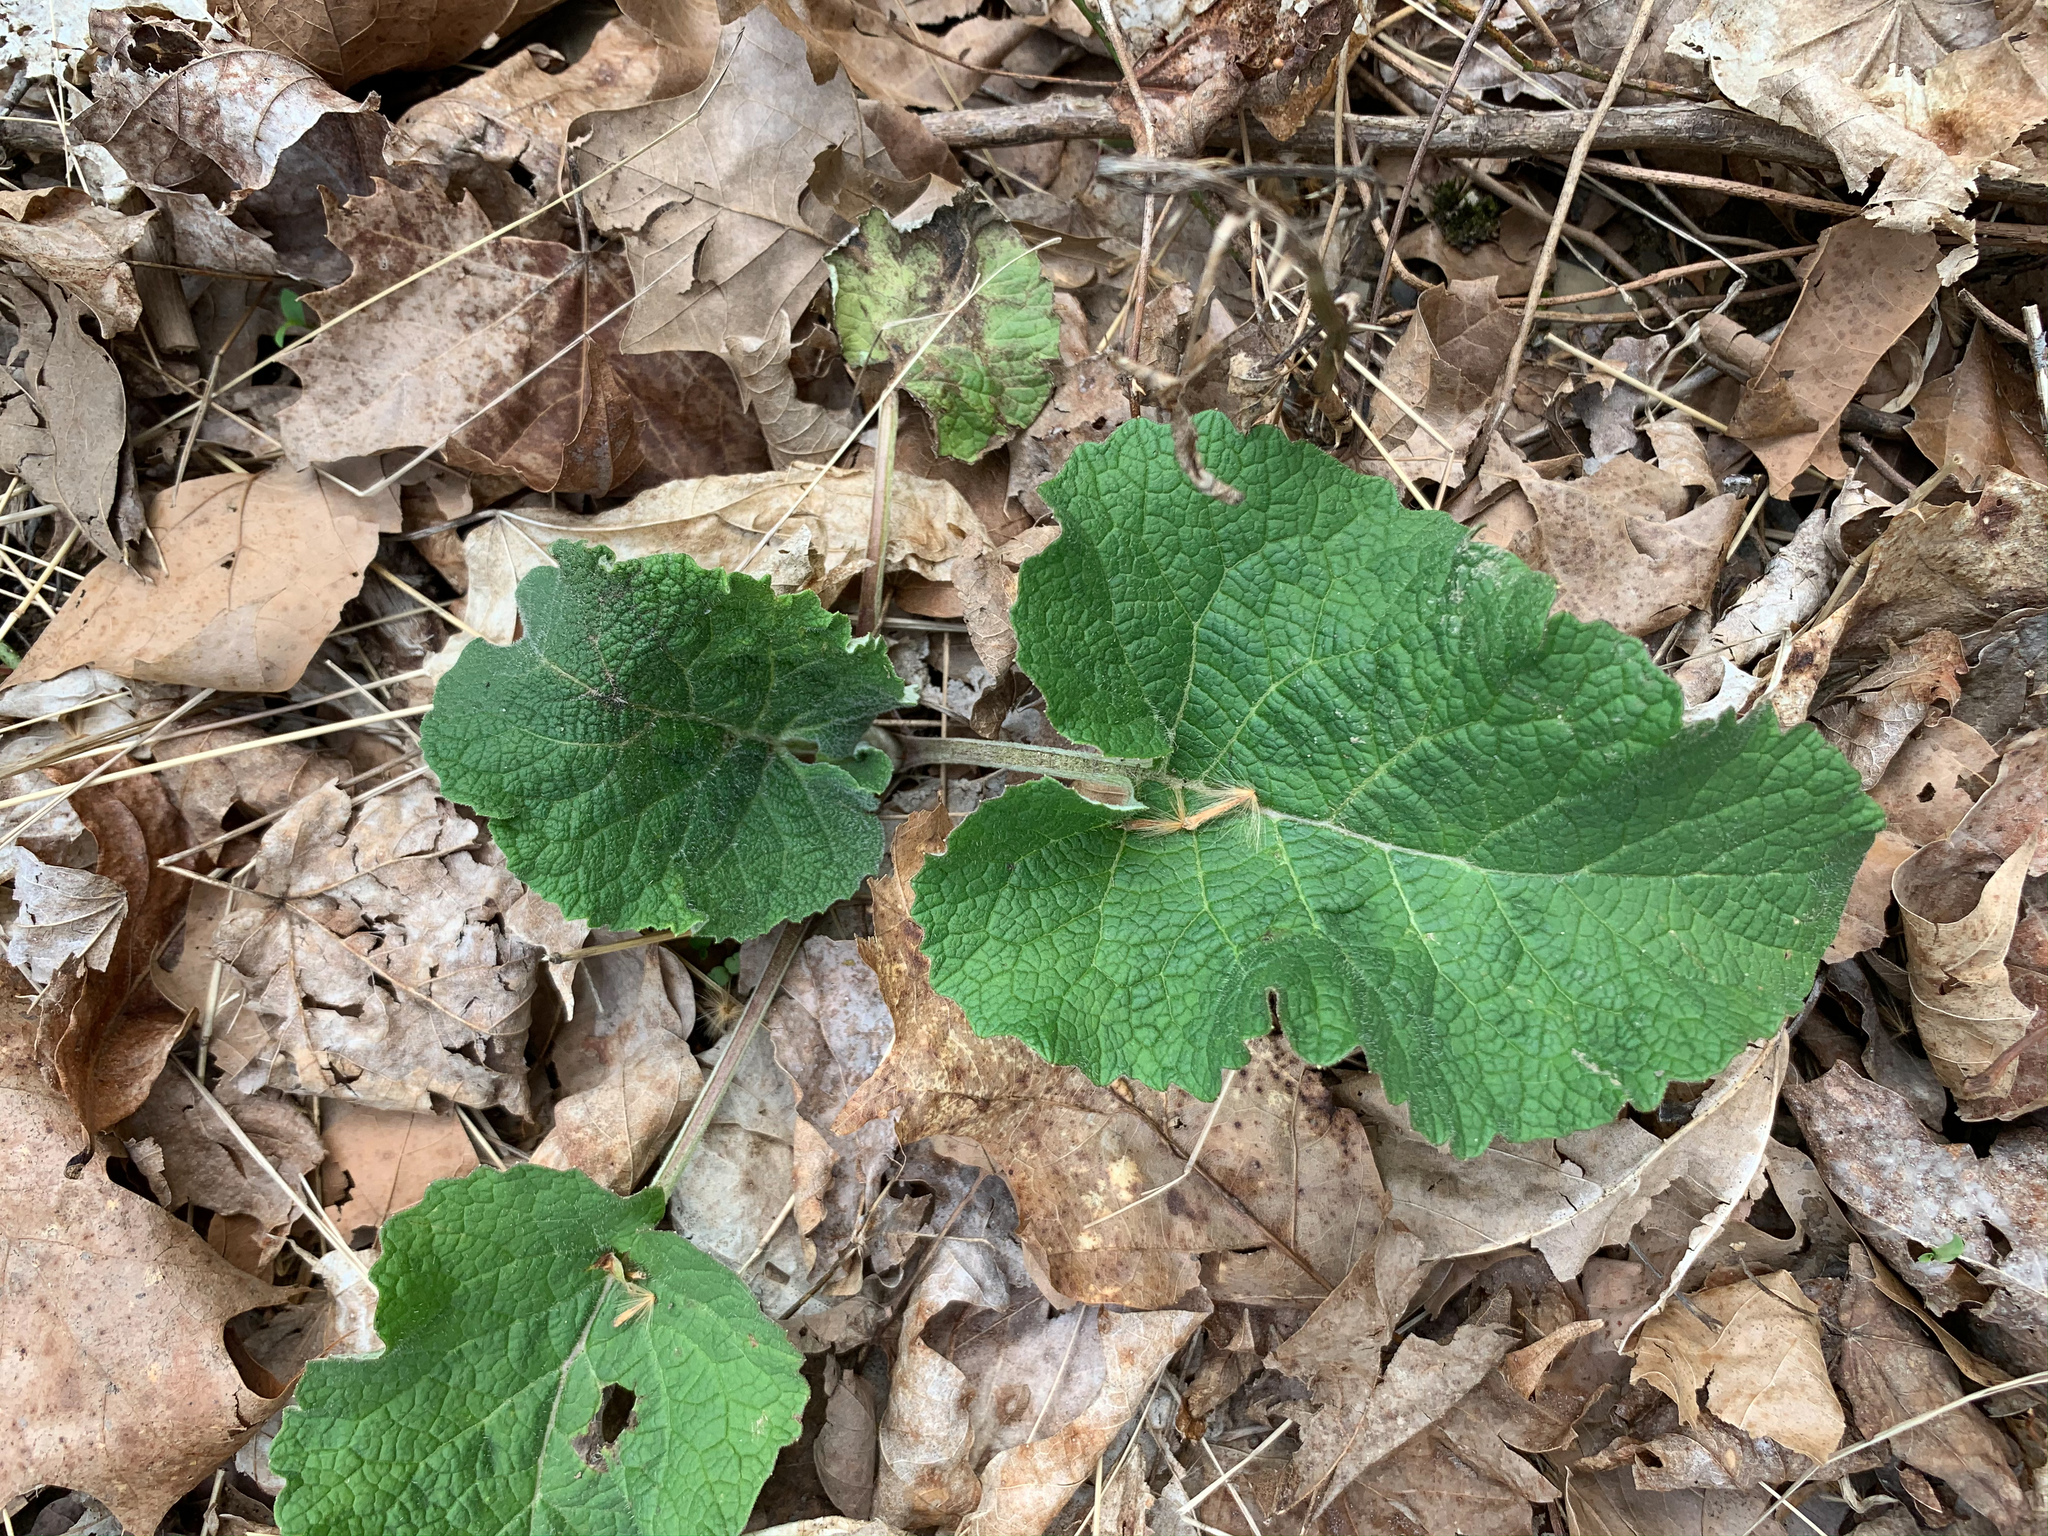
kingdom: Plantae
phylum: Tracheophyta
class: Magnoliopsida
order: Asterales
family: Asteraceae
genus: Arctium
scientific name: Arctium
